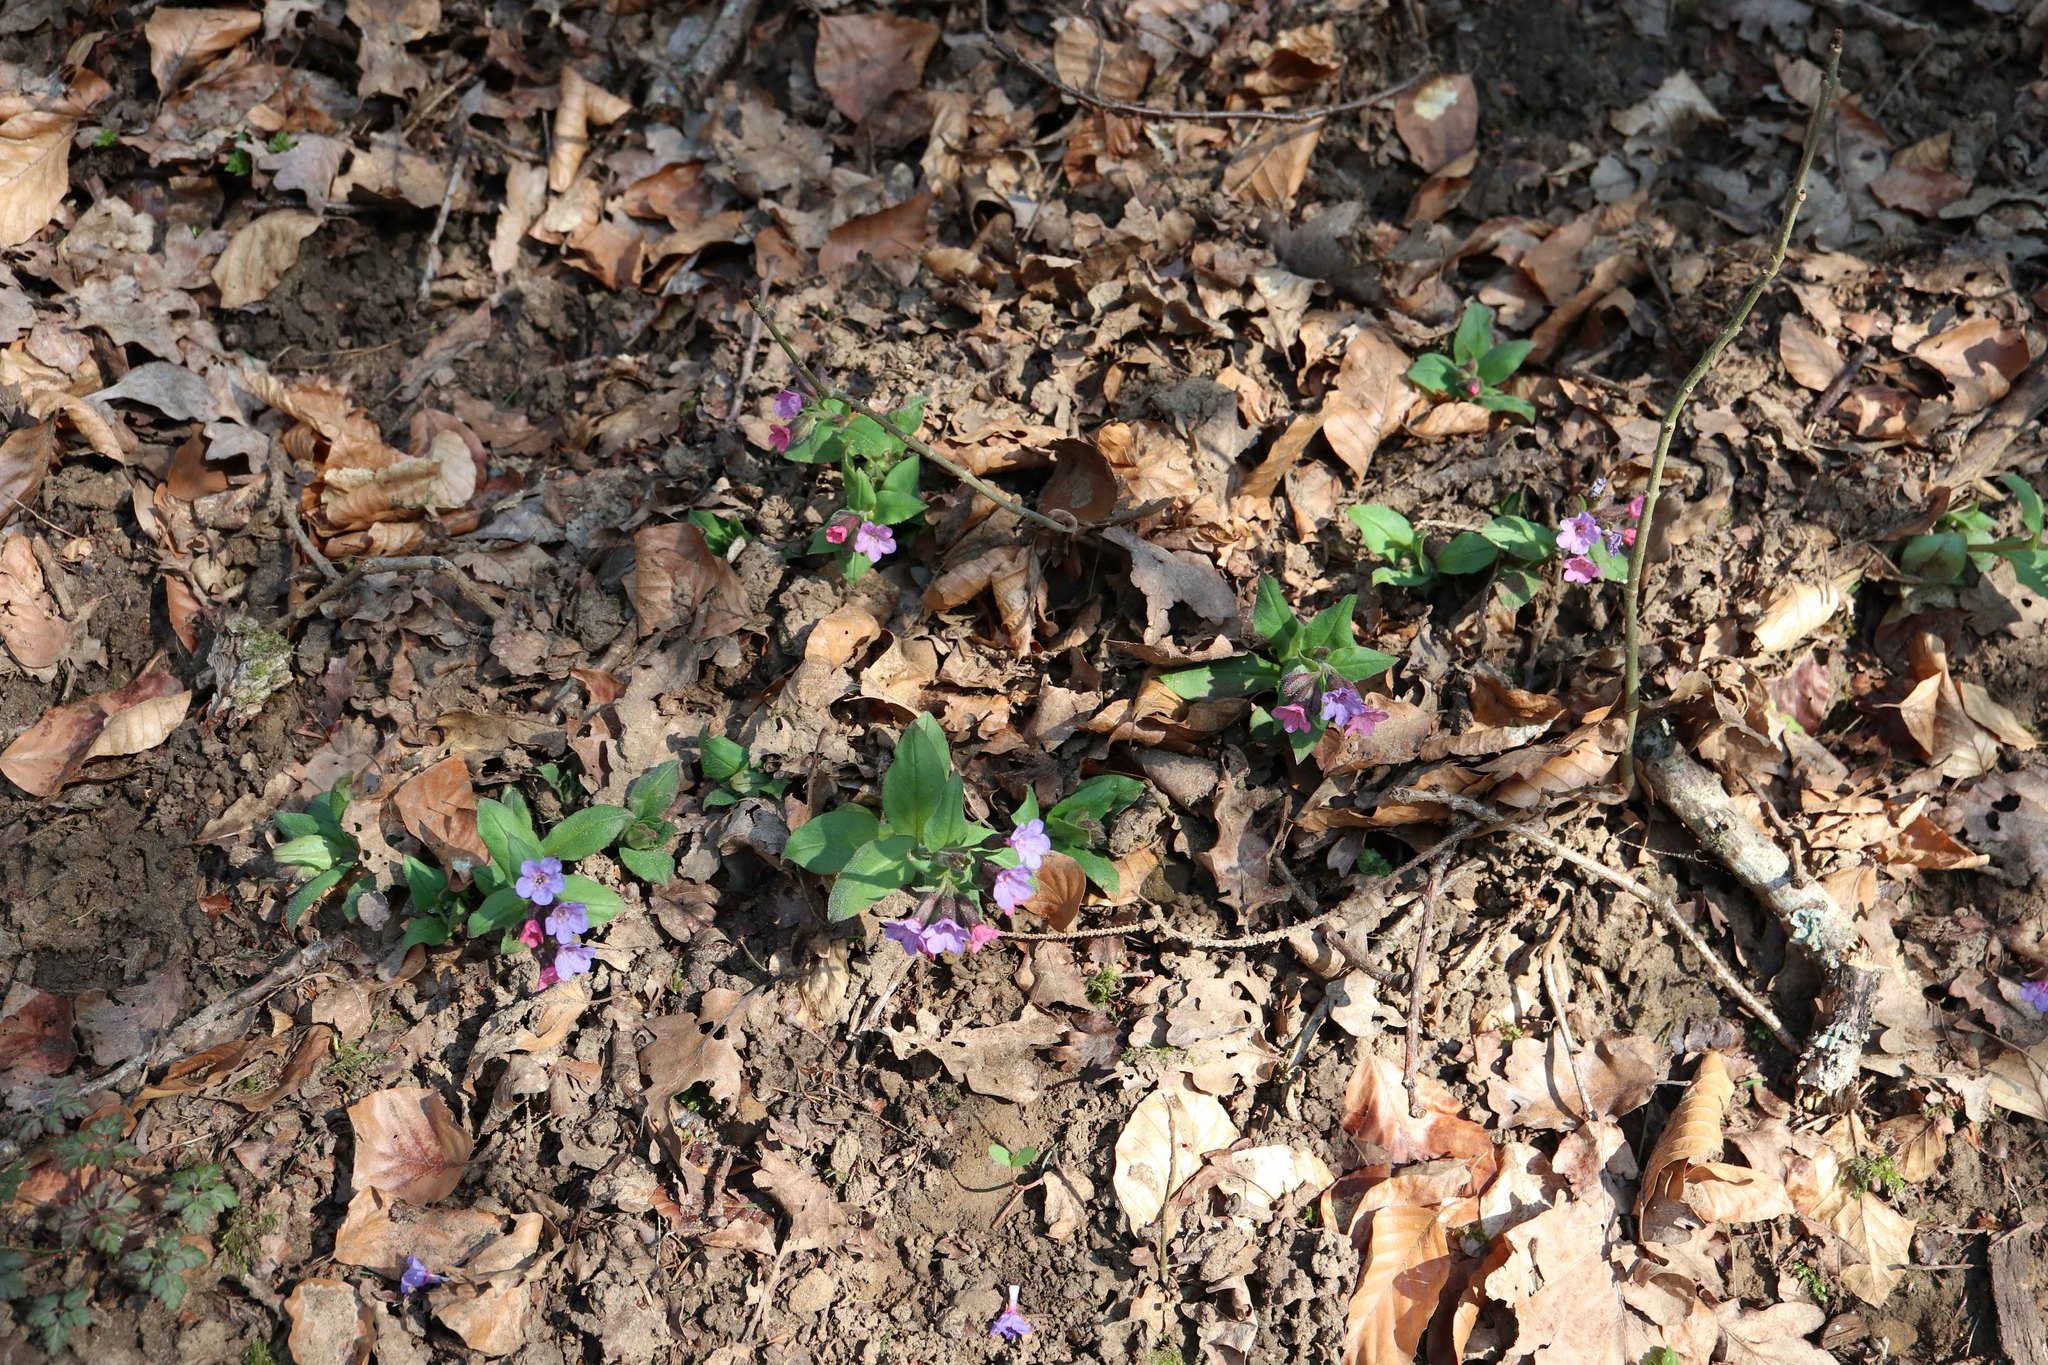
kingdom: Plantae
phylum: Tracheophyta
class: Magnoliopsida
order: Boraginales
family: Boraginaceae
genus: Pulmonaria
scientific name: Pulmonaria obscura
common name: Suffolk lungwort
